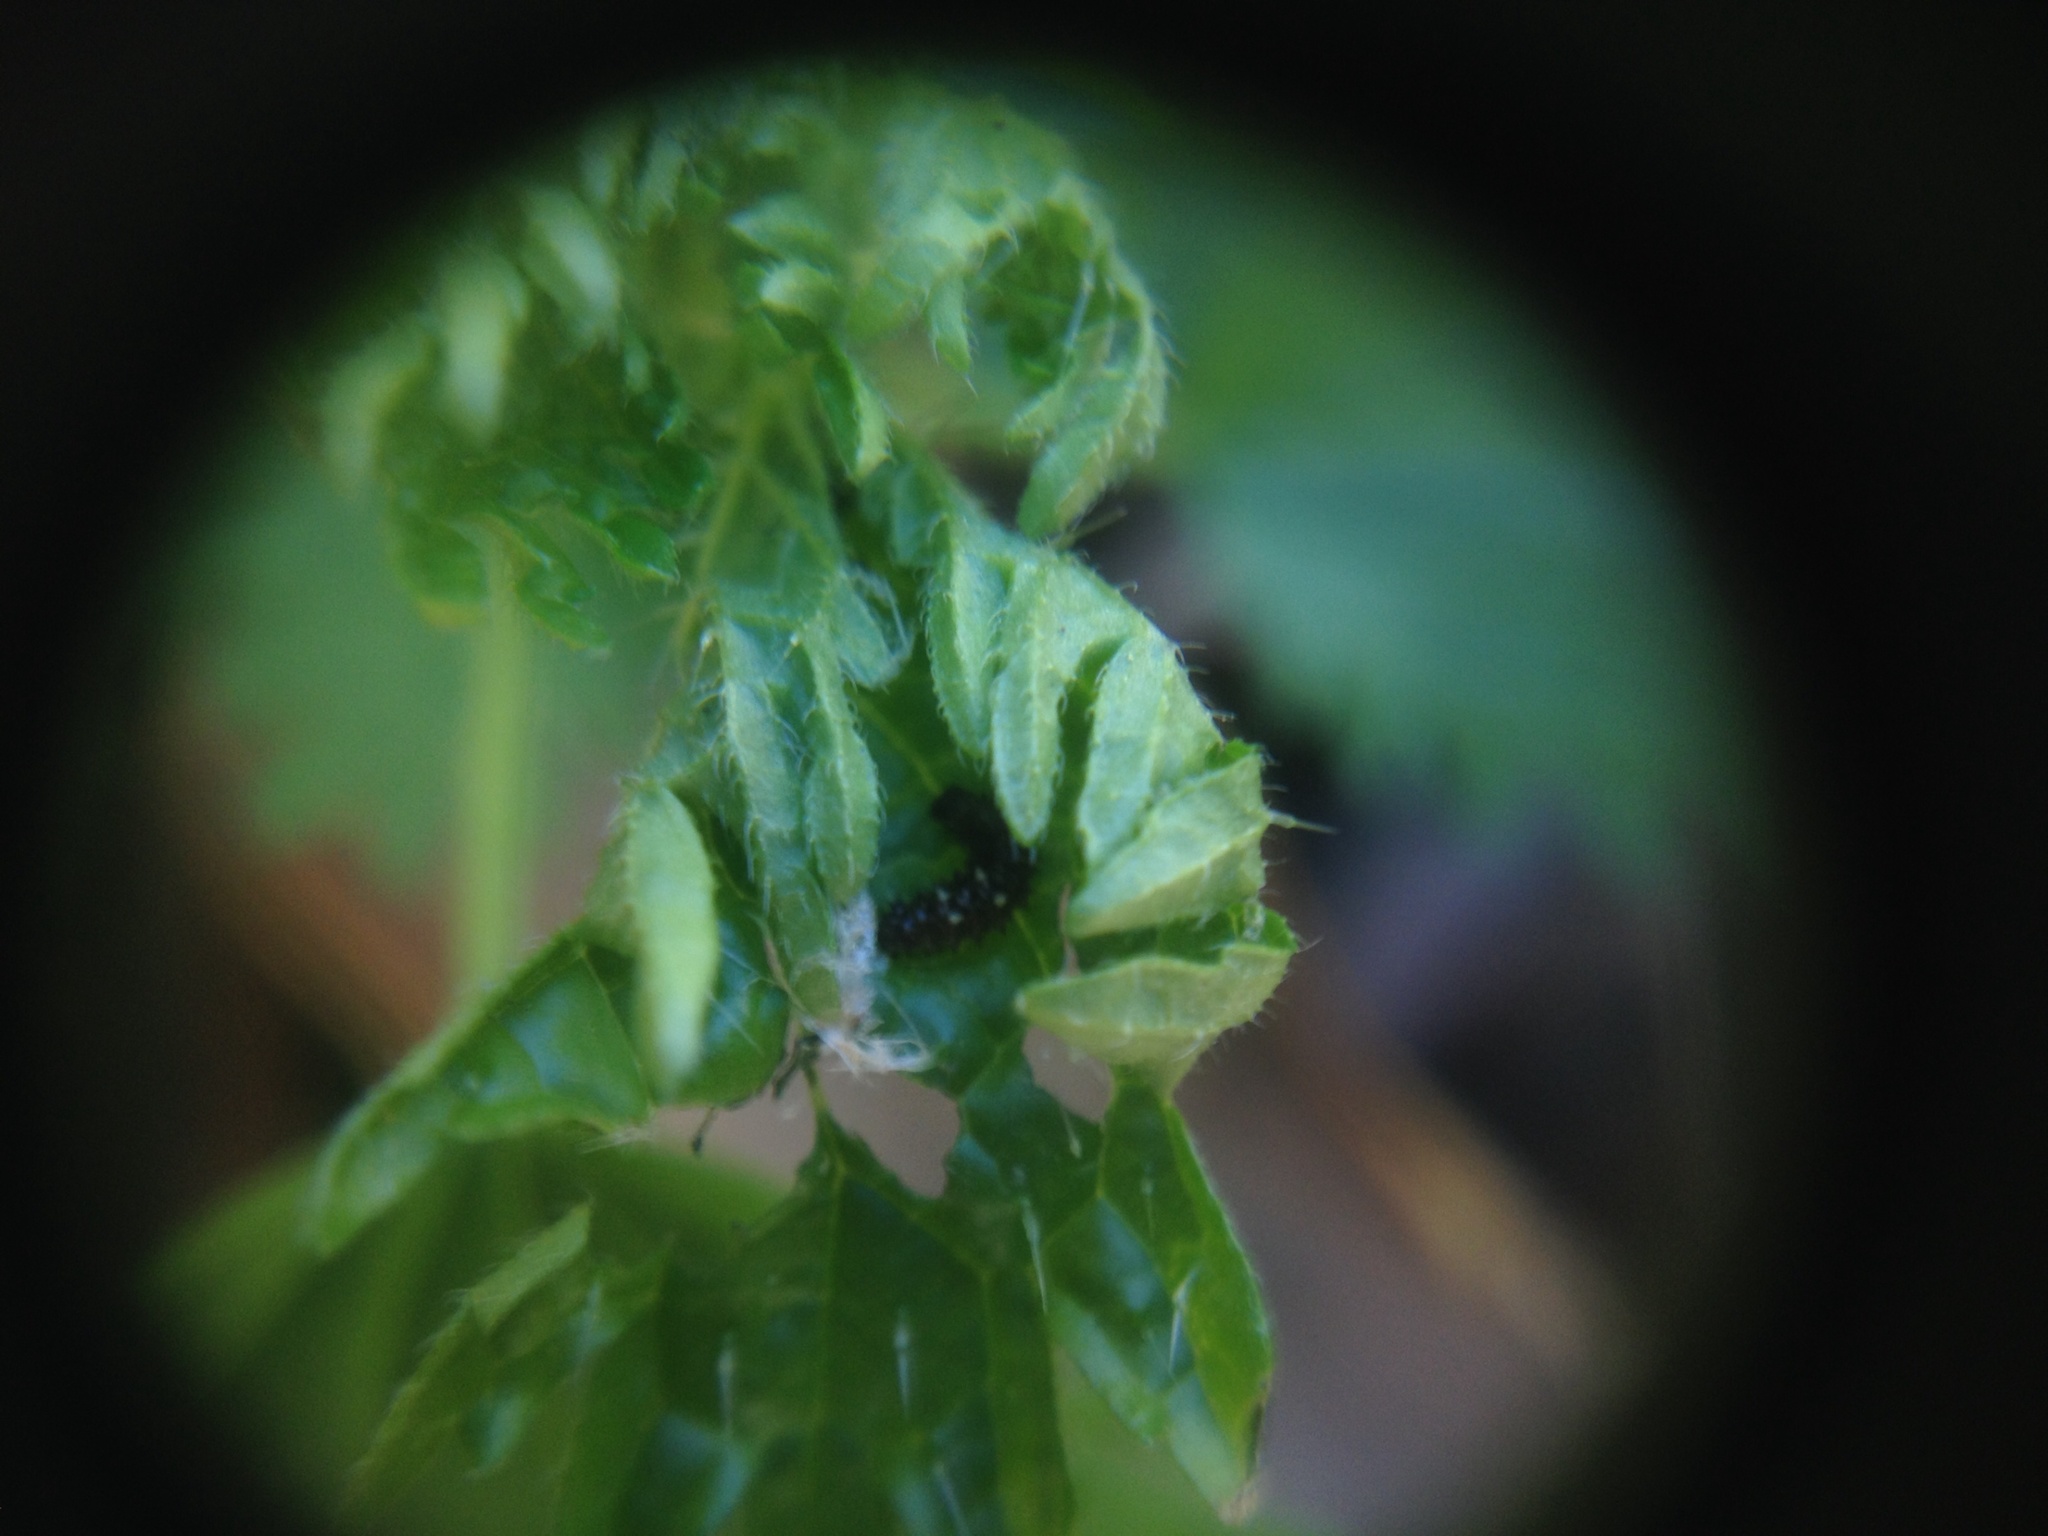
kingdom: Animalia
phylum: Arthropoda
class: Insecta
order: Lepidoptera
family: Nymphalidae
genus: Vanessa
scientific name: Vanessa itea
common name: Yellow admiral
